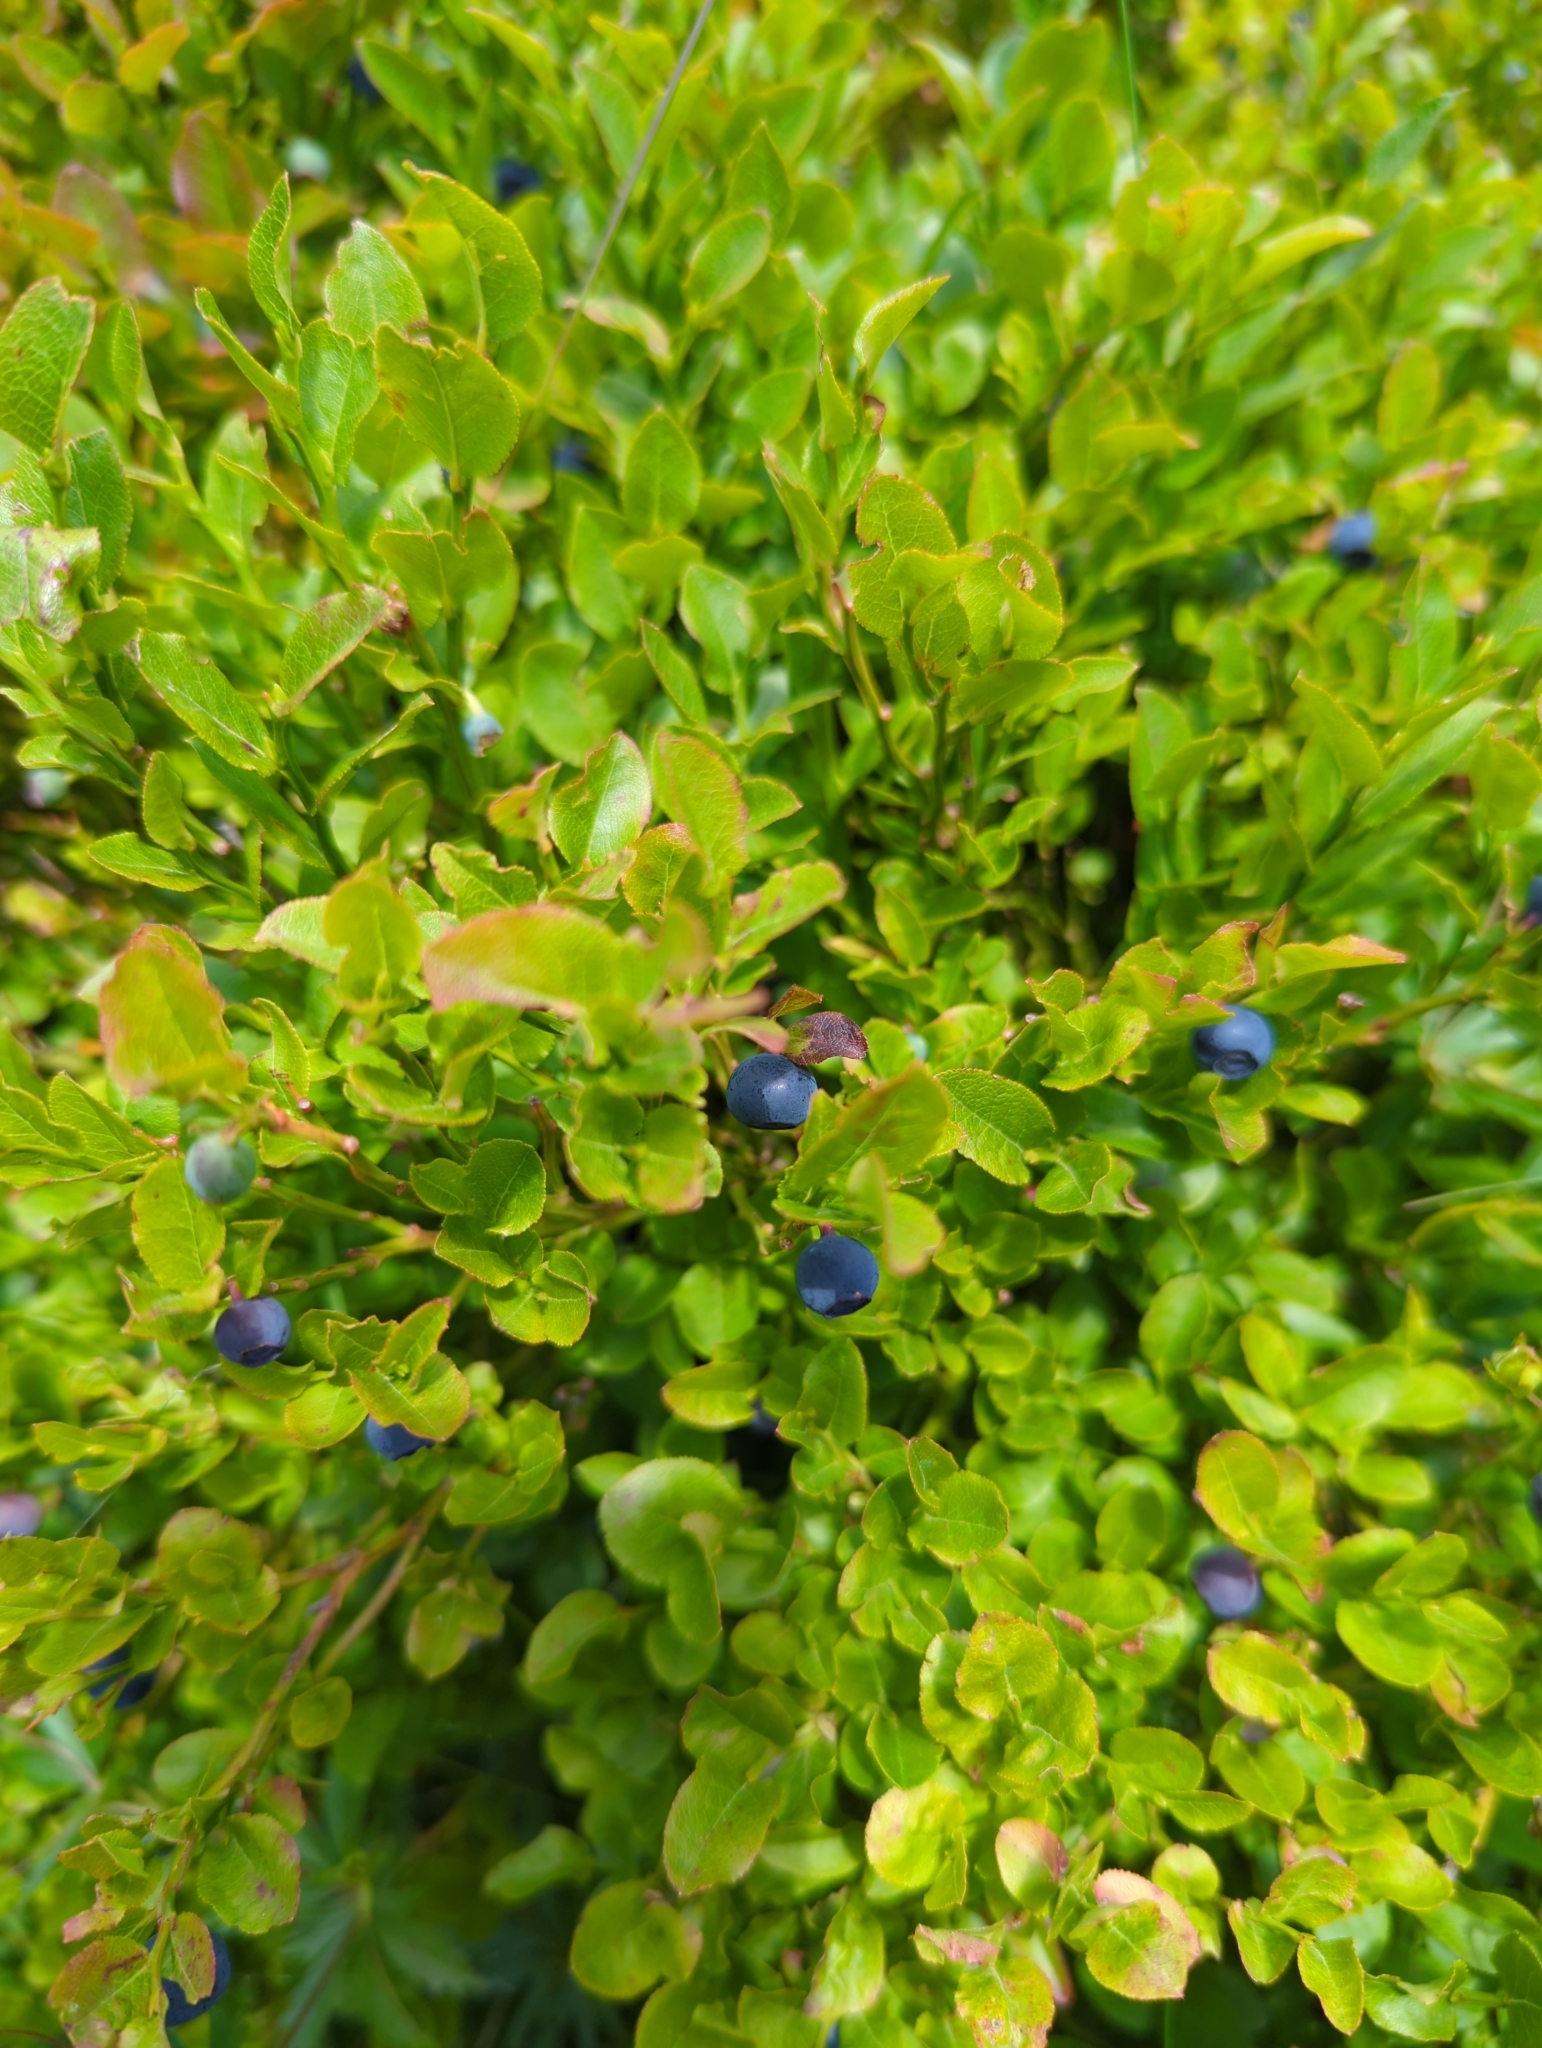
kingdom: Plantae
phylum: Tracheophyta
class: Magnoliopsida
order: Ericales
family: Ericaceae
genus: Vaccinium
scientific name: Vaccinium myrtillus
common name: Bilberry
